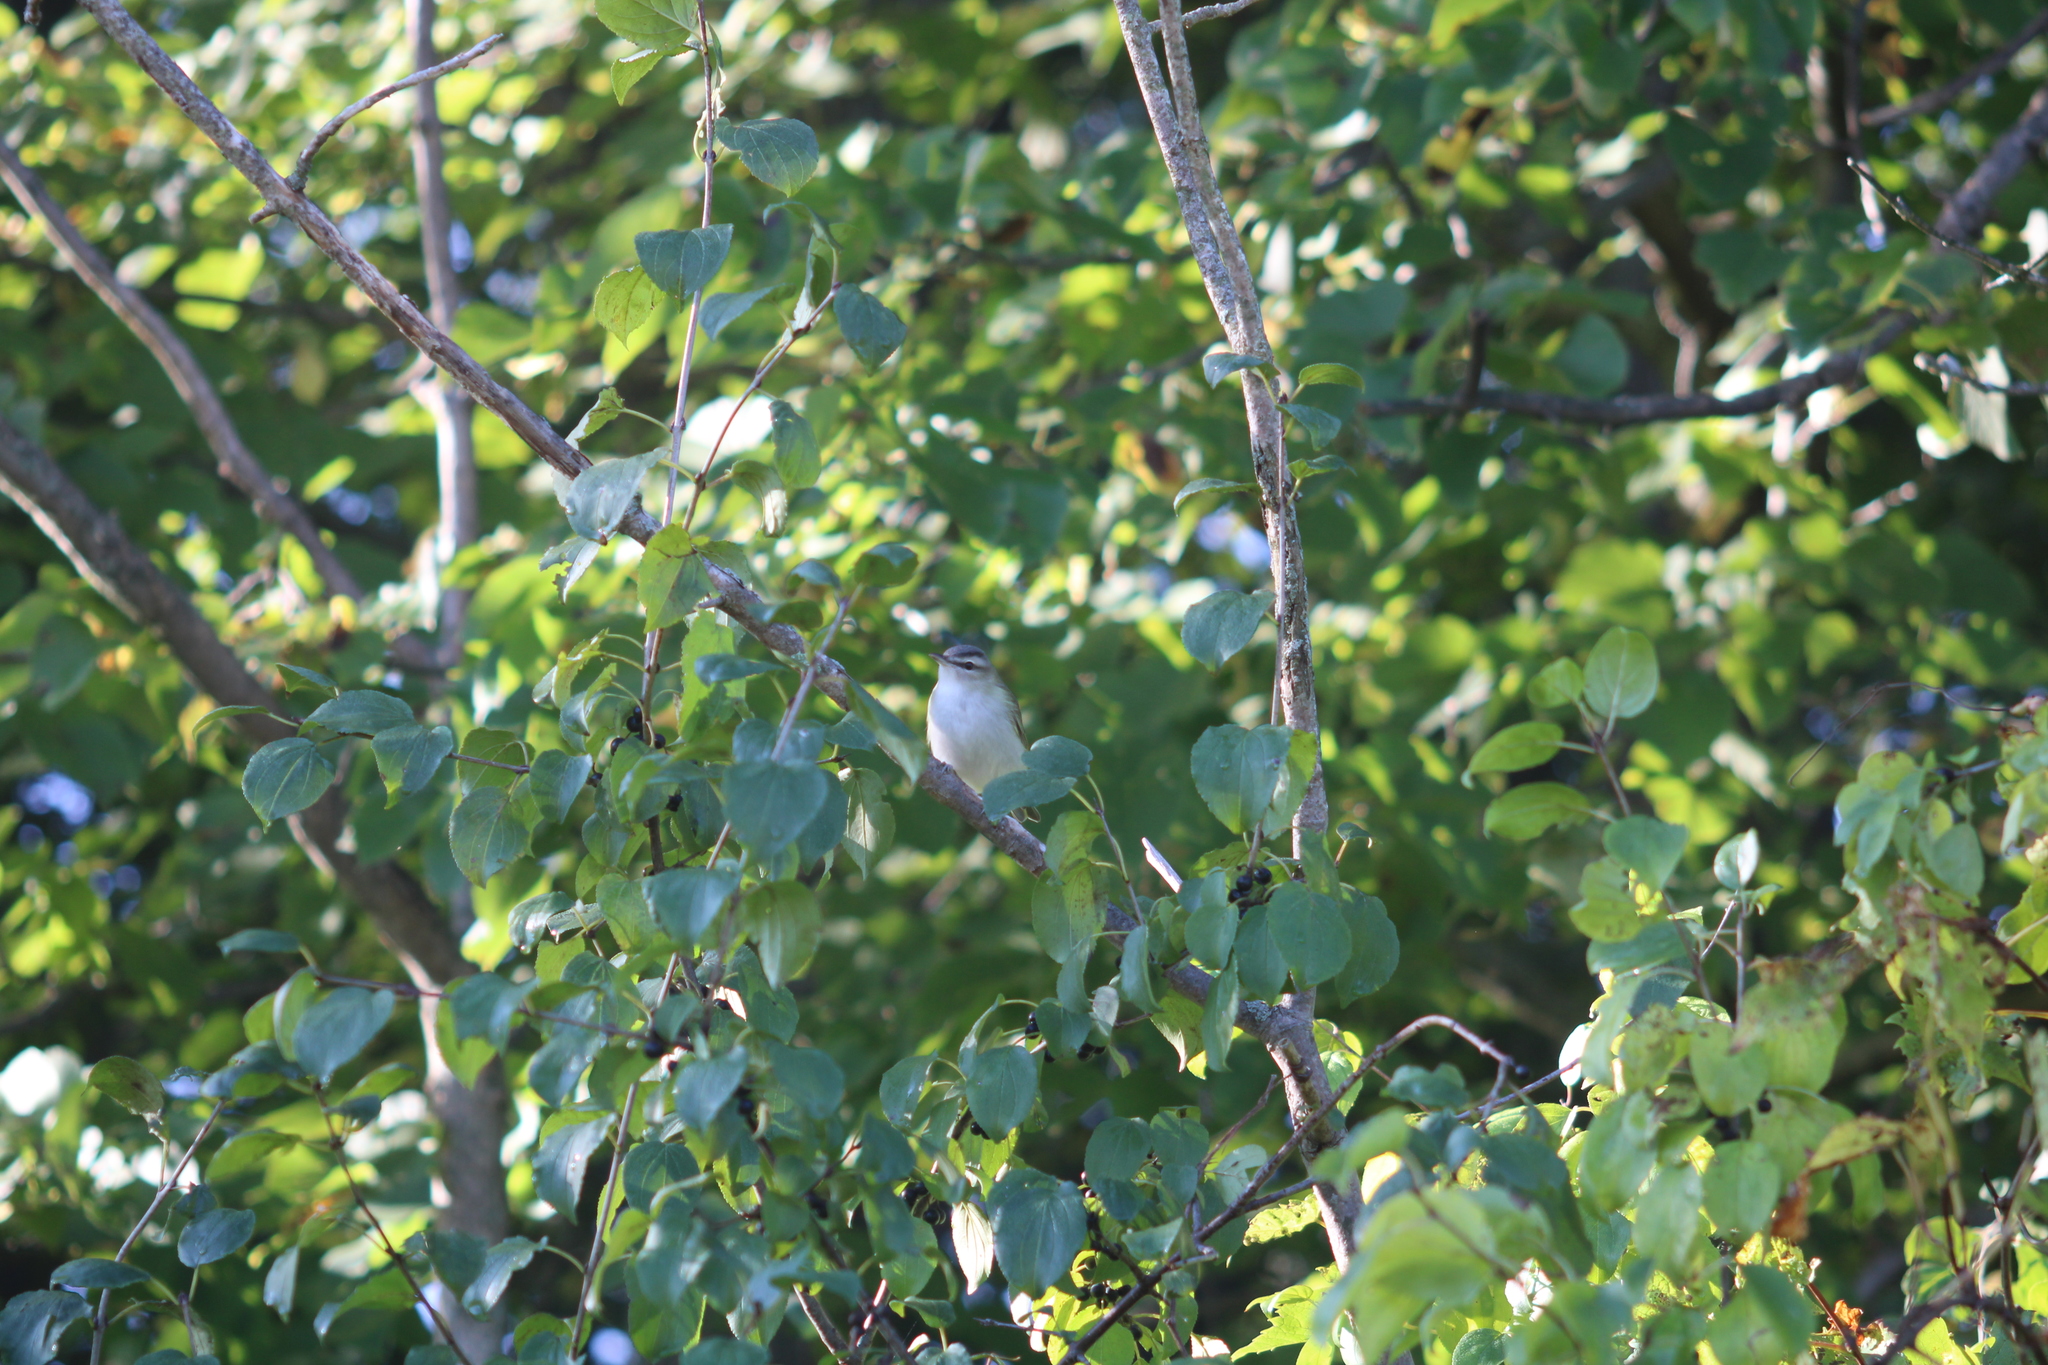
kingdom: Animalia
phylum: Chordata
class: Aves
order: Passeriformes
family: Vireonidae
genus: Vireo
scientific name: Vireo olivaceus
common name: Red-eyed vireo
